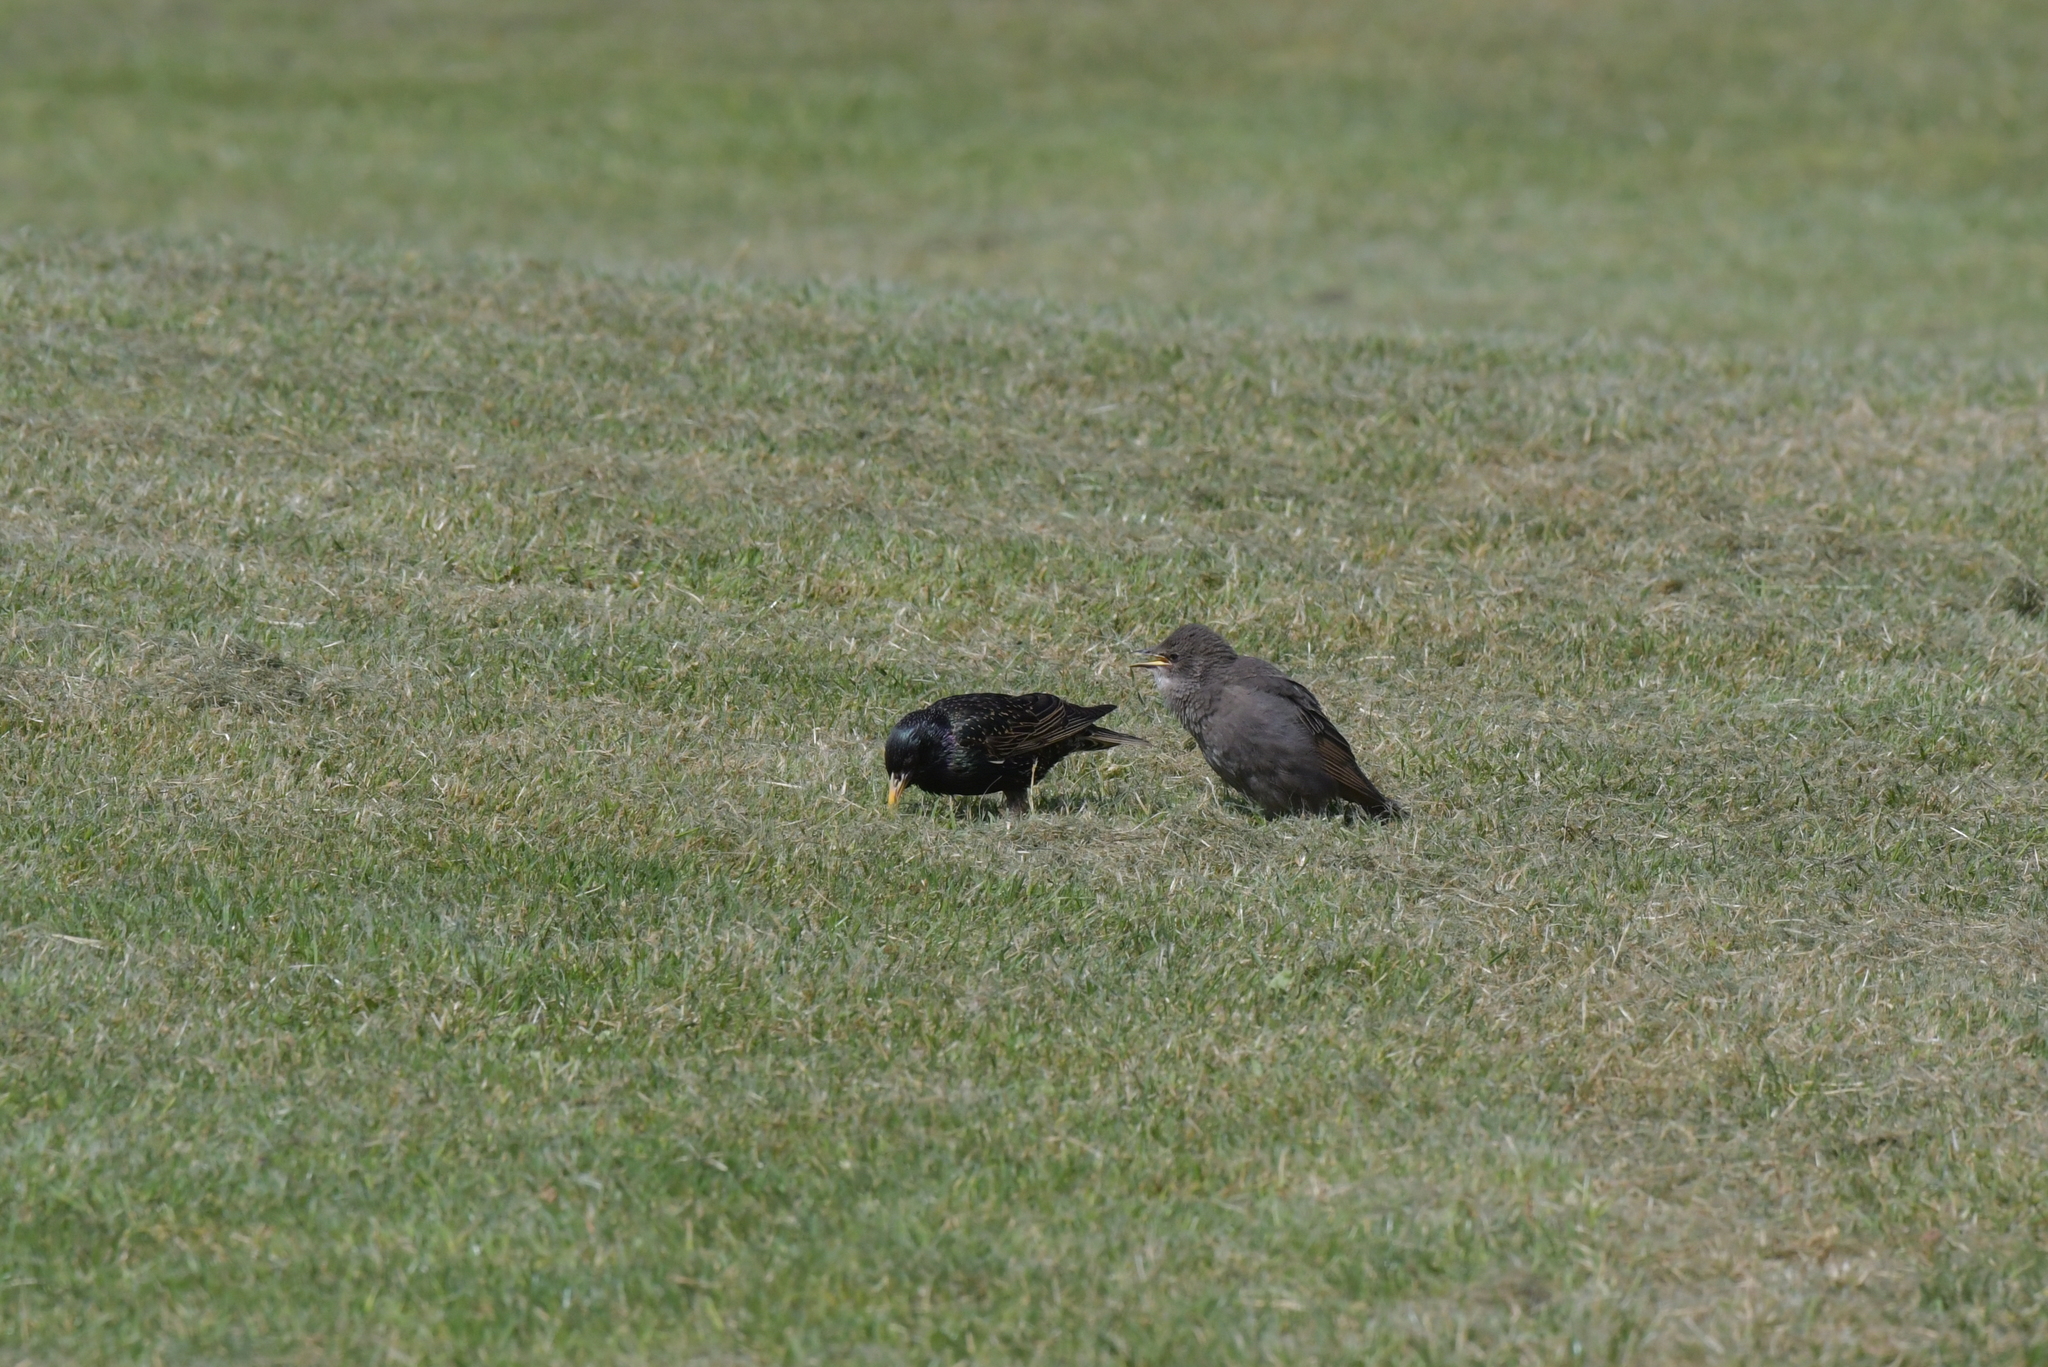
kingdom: Animalia
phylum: Chordata
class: Aves
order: Passeriformes
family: Sturnidae
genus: Sturnus
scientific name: Sturnus vulgaris
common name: Common starling
